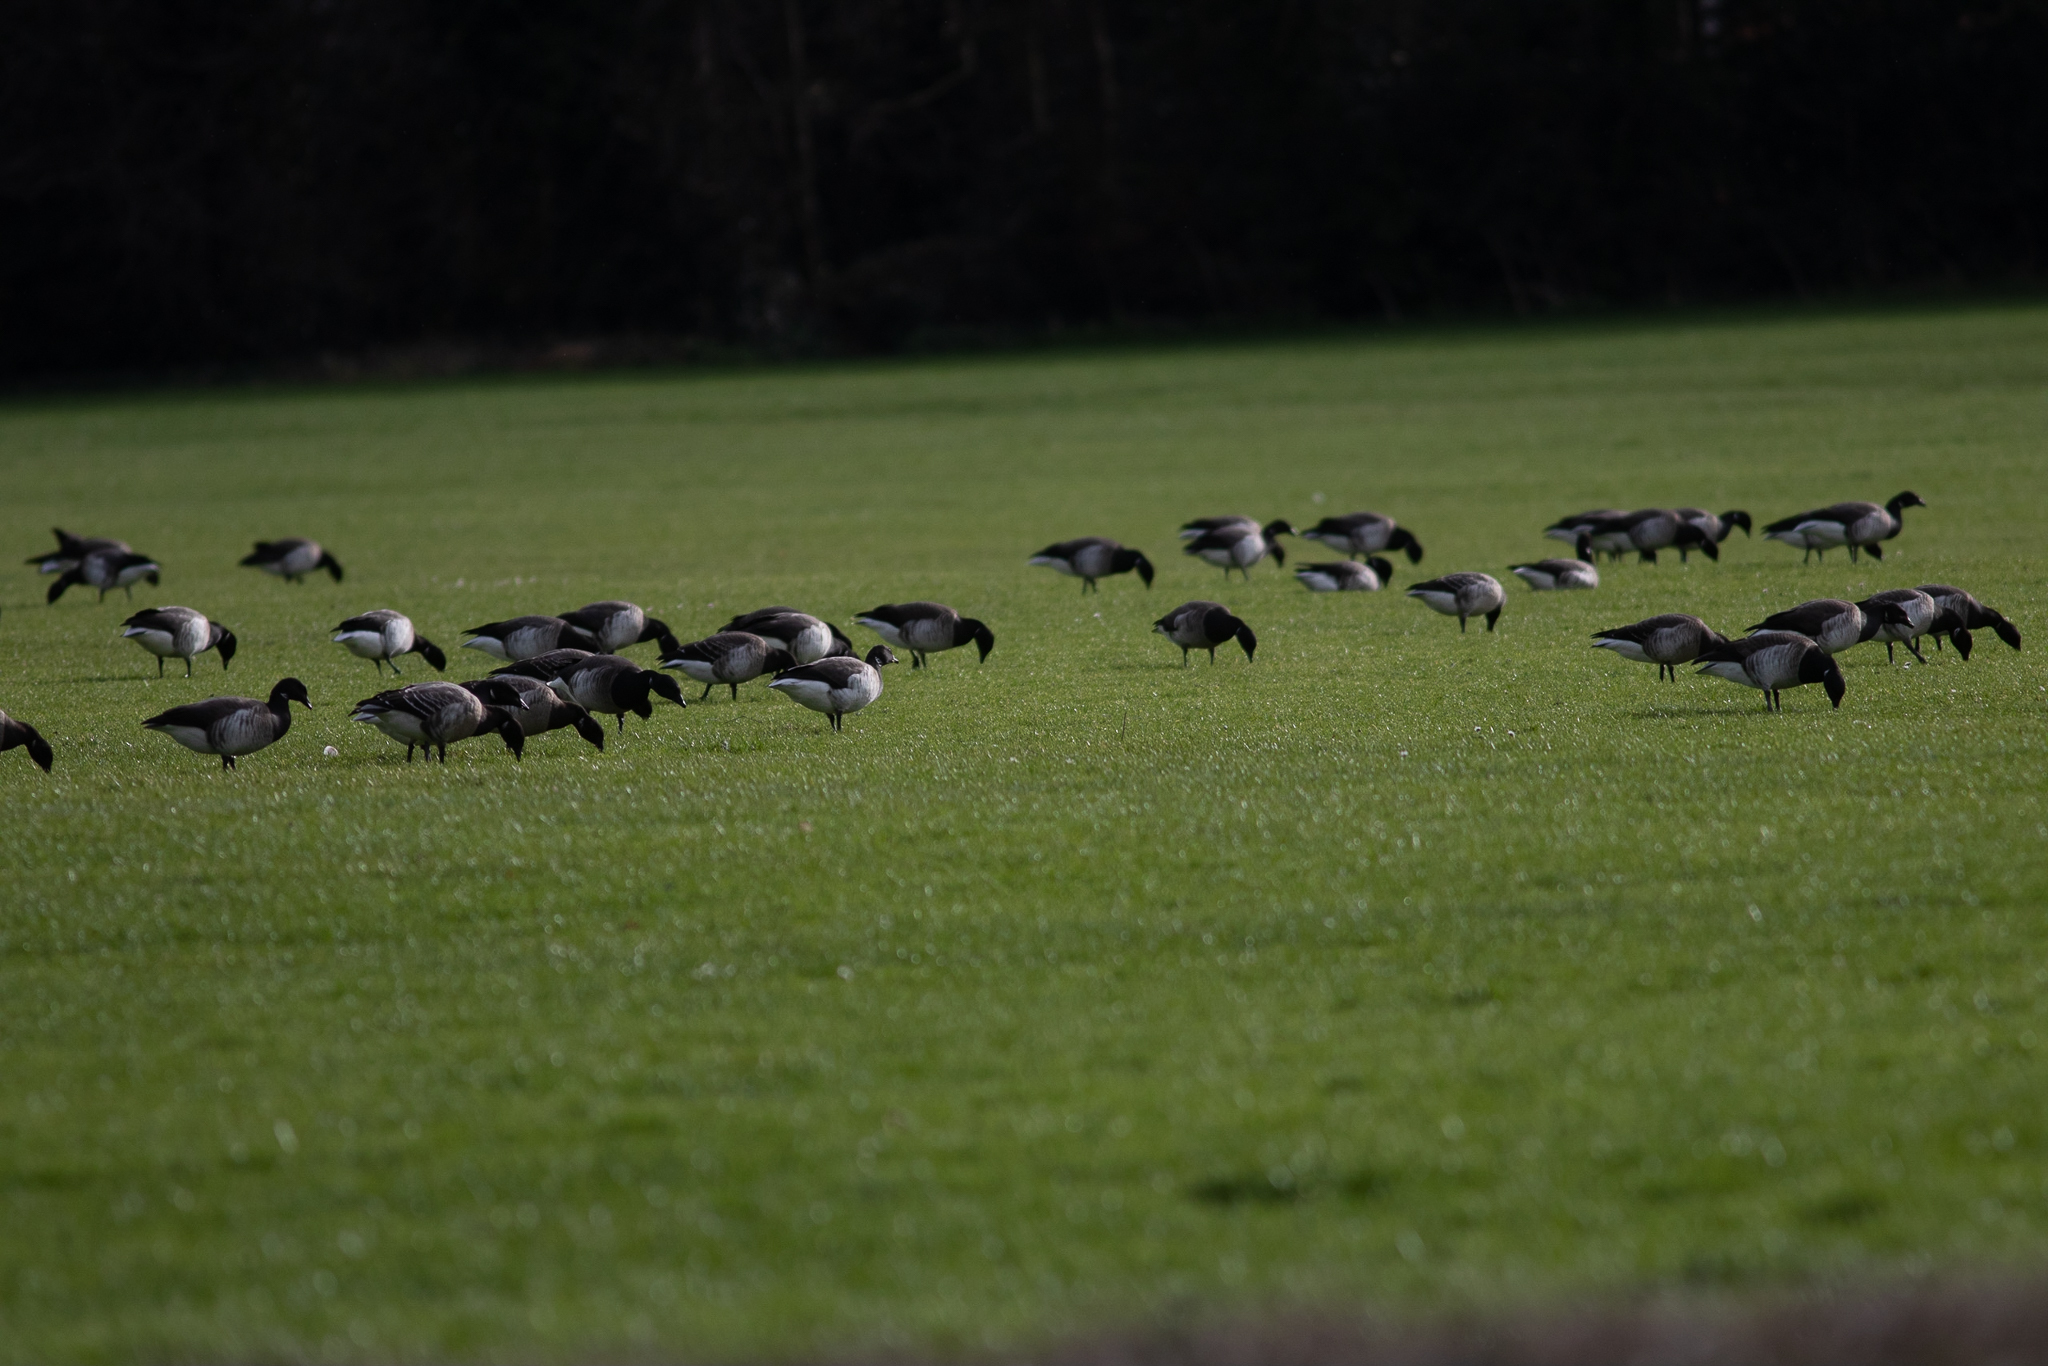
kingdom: Animalia
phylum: Chordata
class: Aves
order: Anseriformes
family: Anatidae
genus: Branta
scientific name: Branta bernicla
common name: Brant goose
